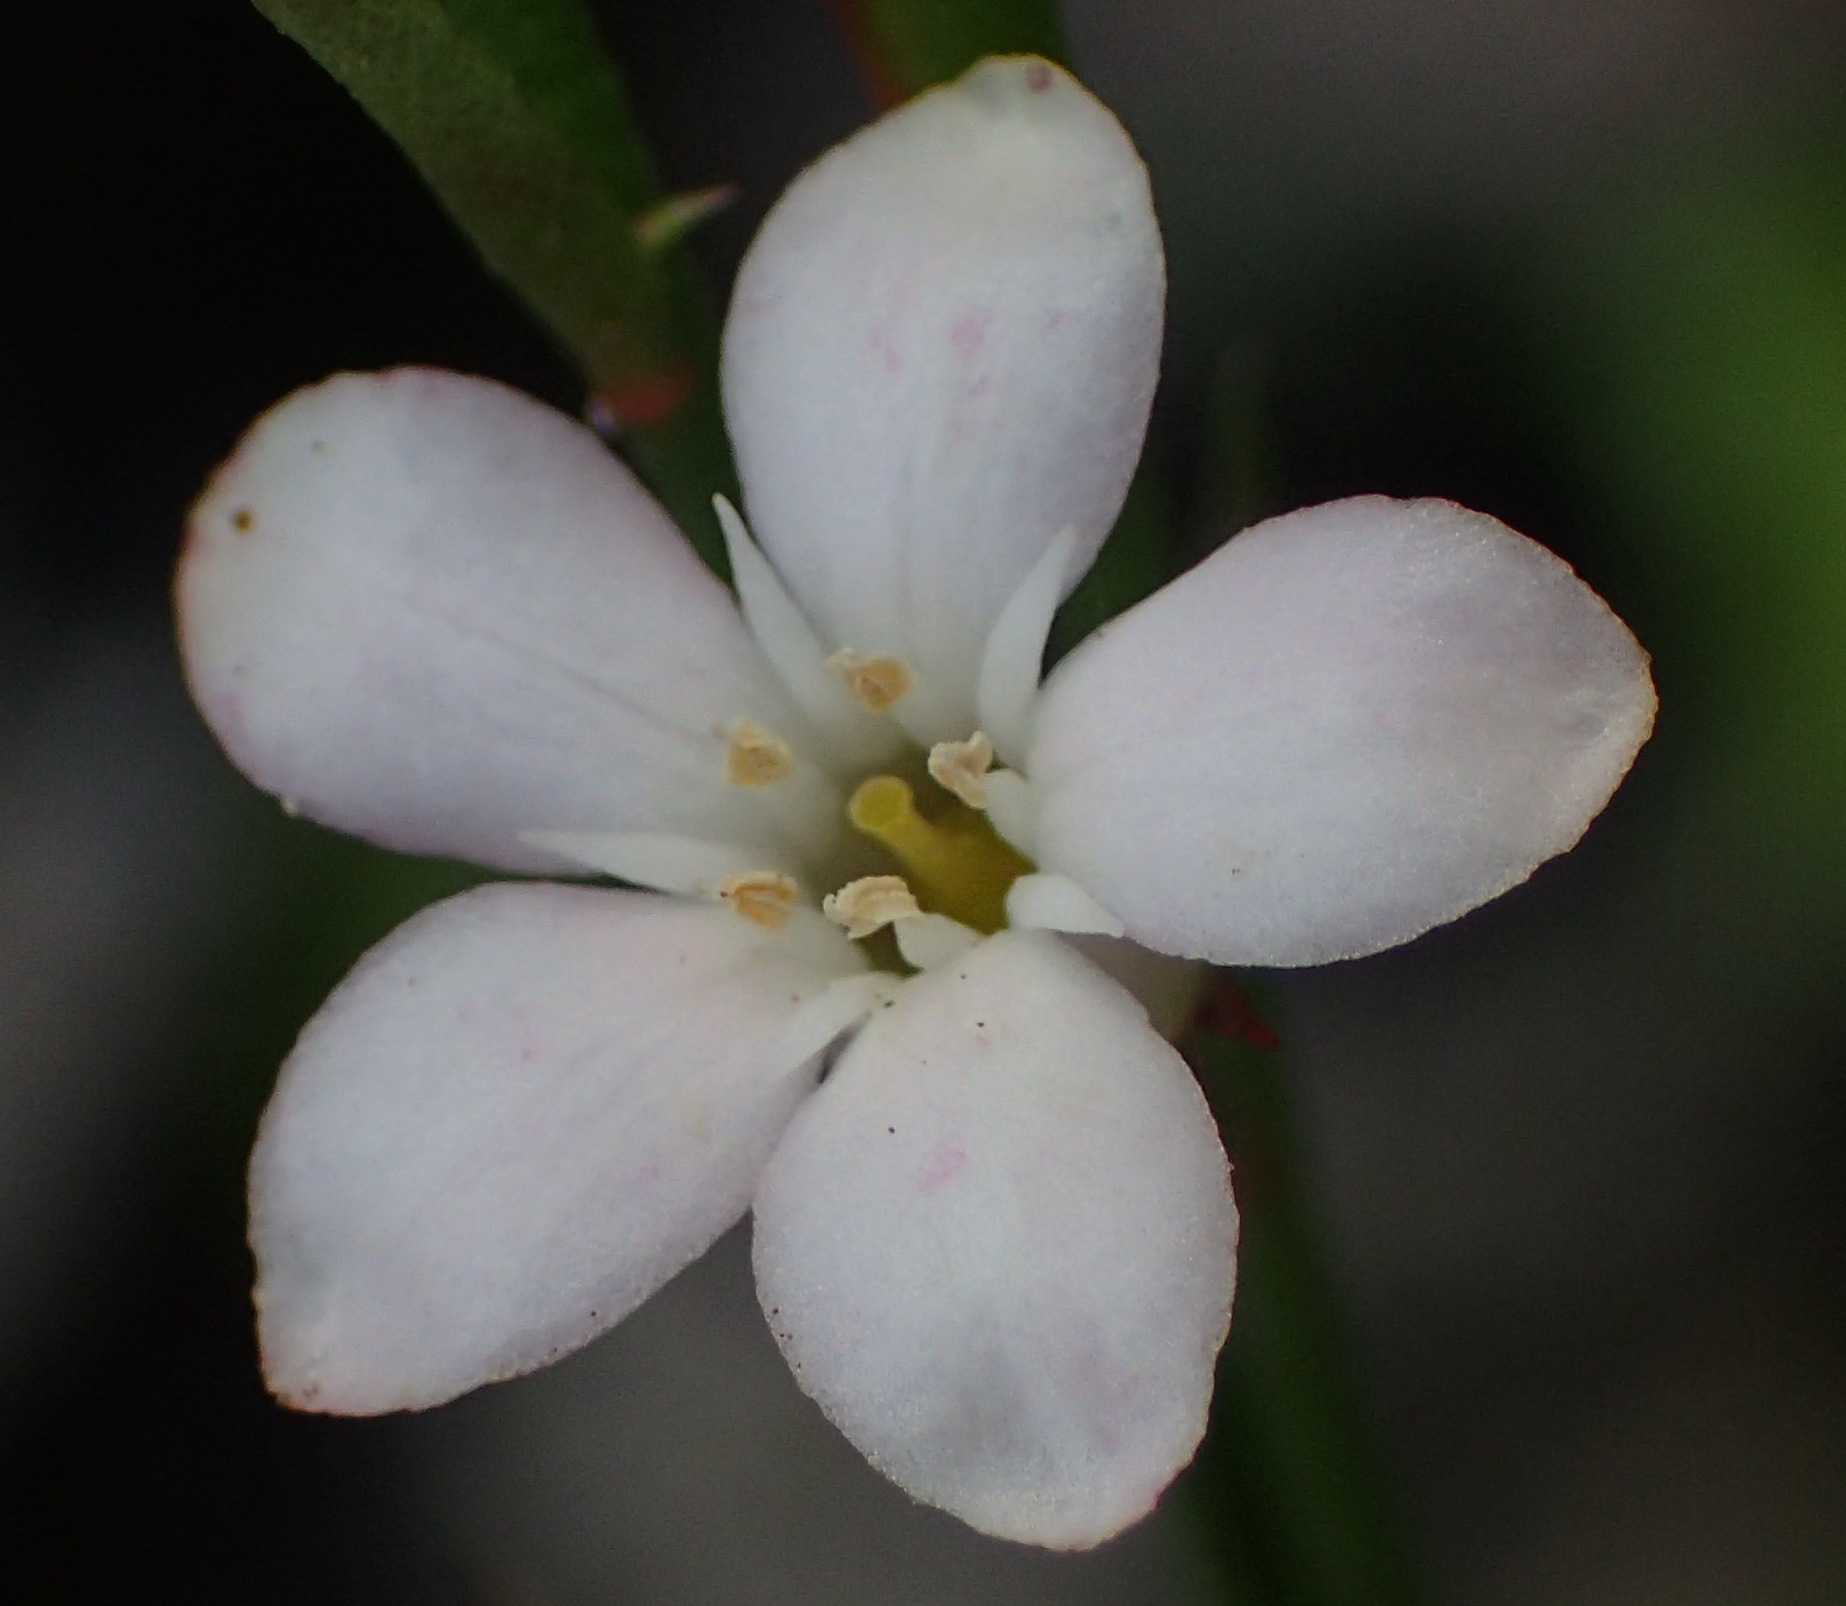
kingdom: Plantae
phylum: Tracheophyta
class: Magnoliopsida
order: Ericales
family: Primulaceae
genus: Samolus
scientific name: Samolus porosus
